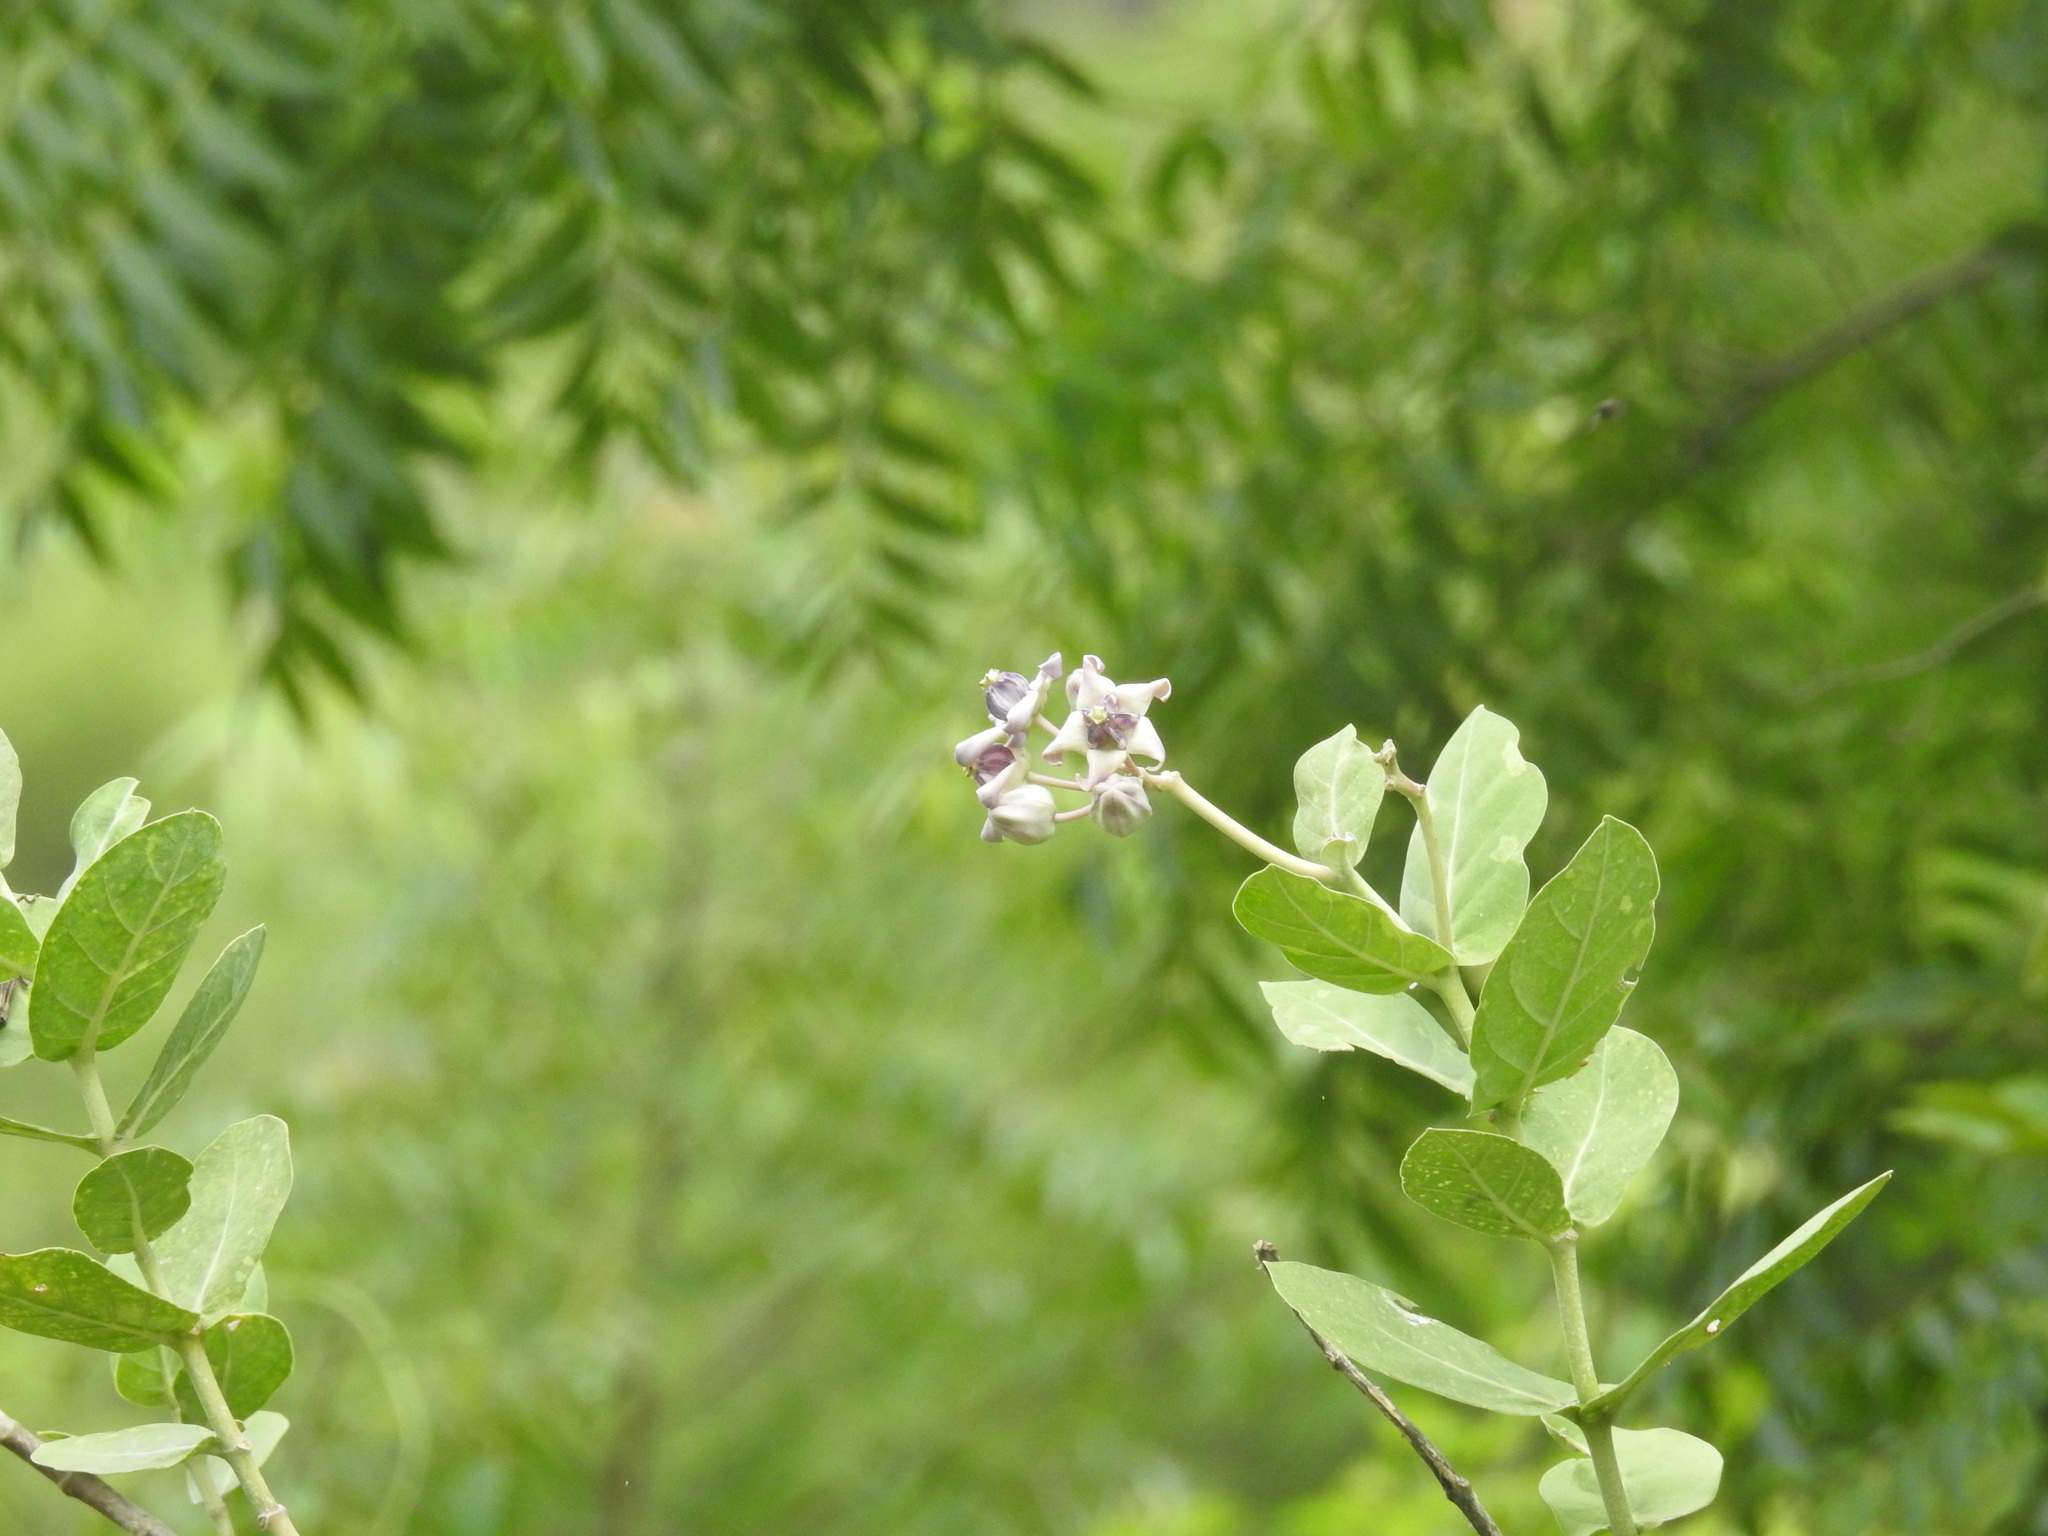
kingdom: Plantae
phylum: Tracheophyta
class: Magnoliopsida
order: Gentianales
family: Apocynaceae
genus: Calotropis
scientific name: Calotropis gigantea
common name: Crown flower
